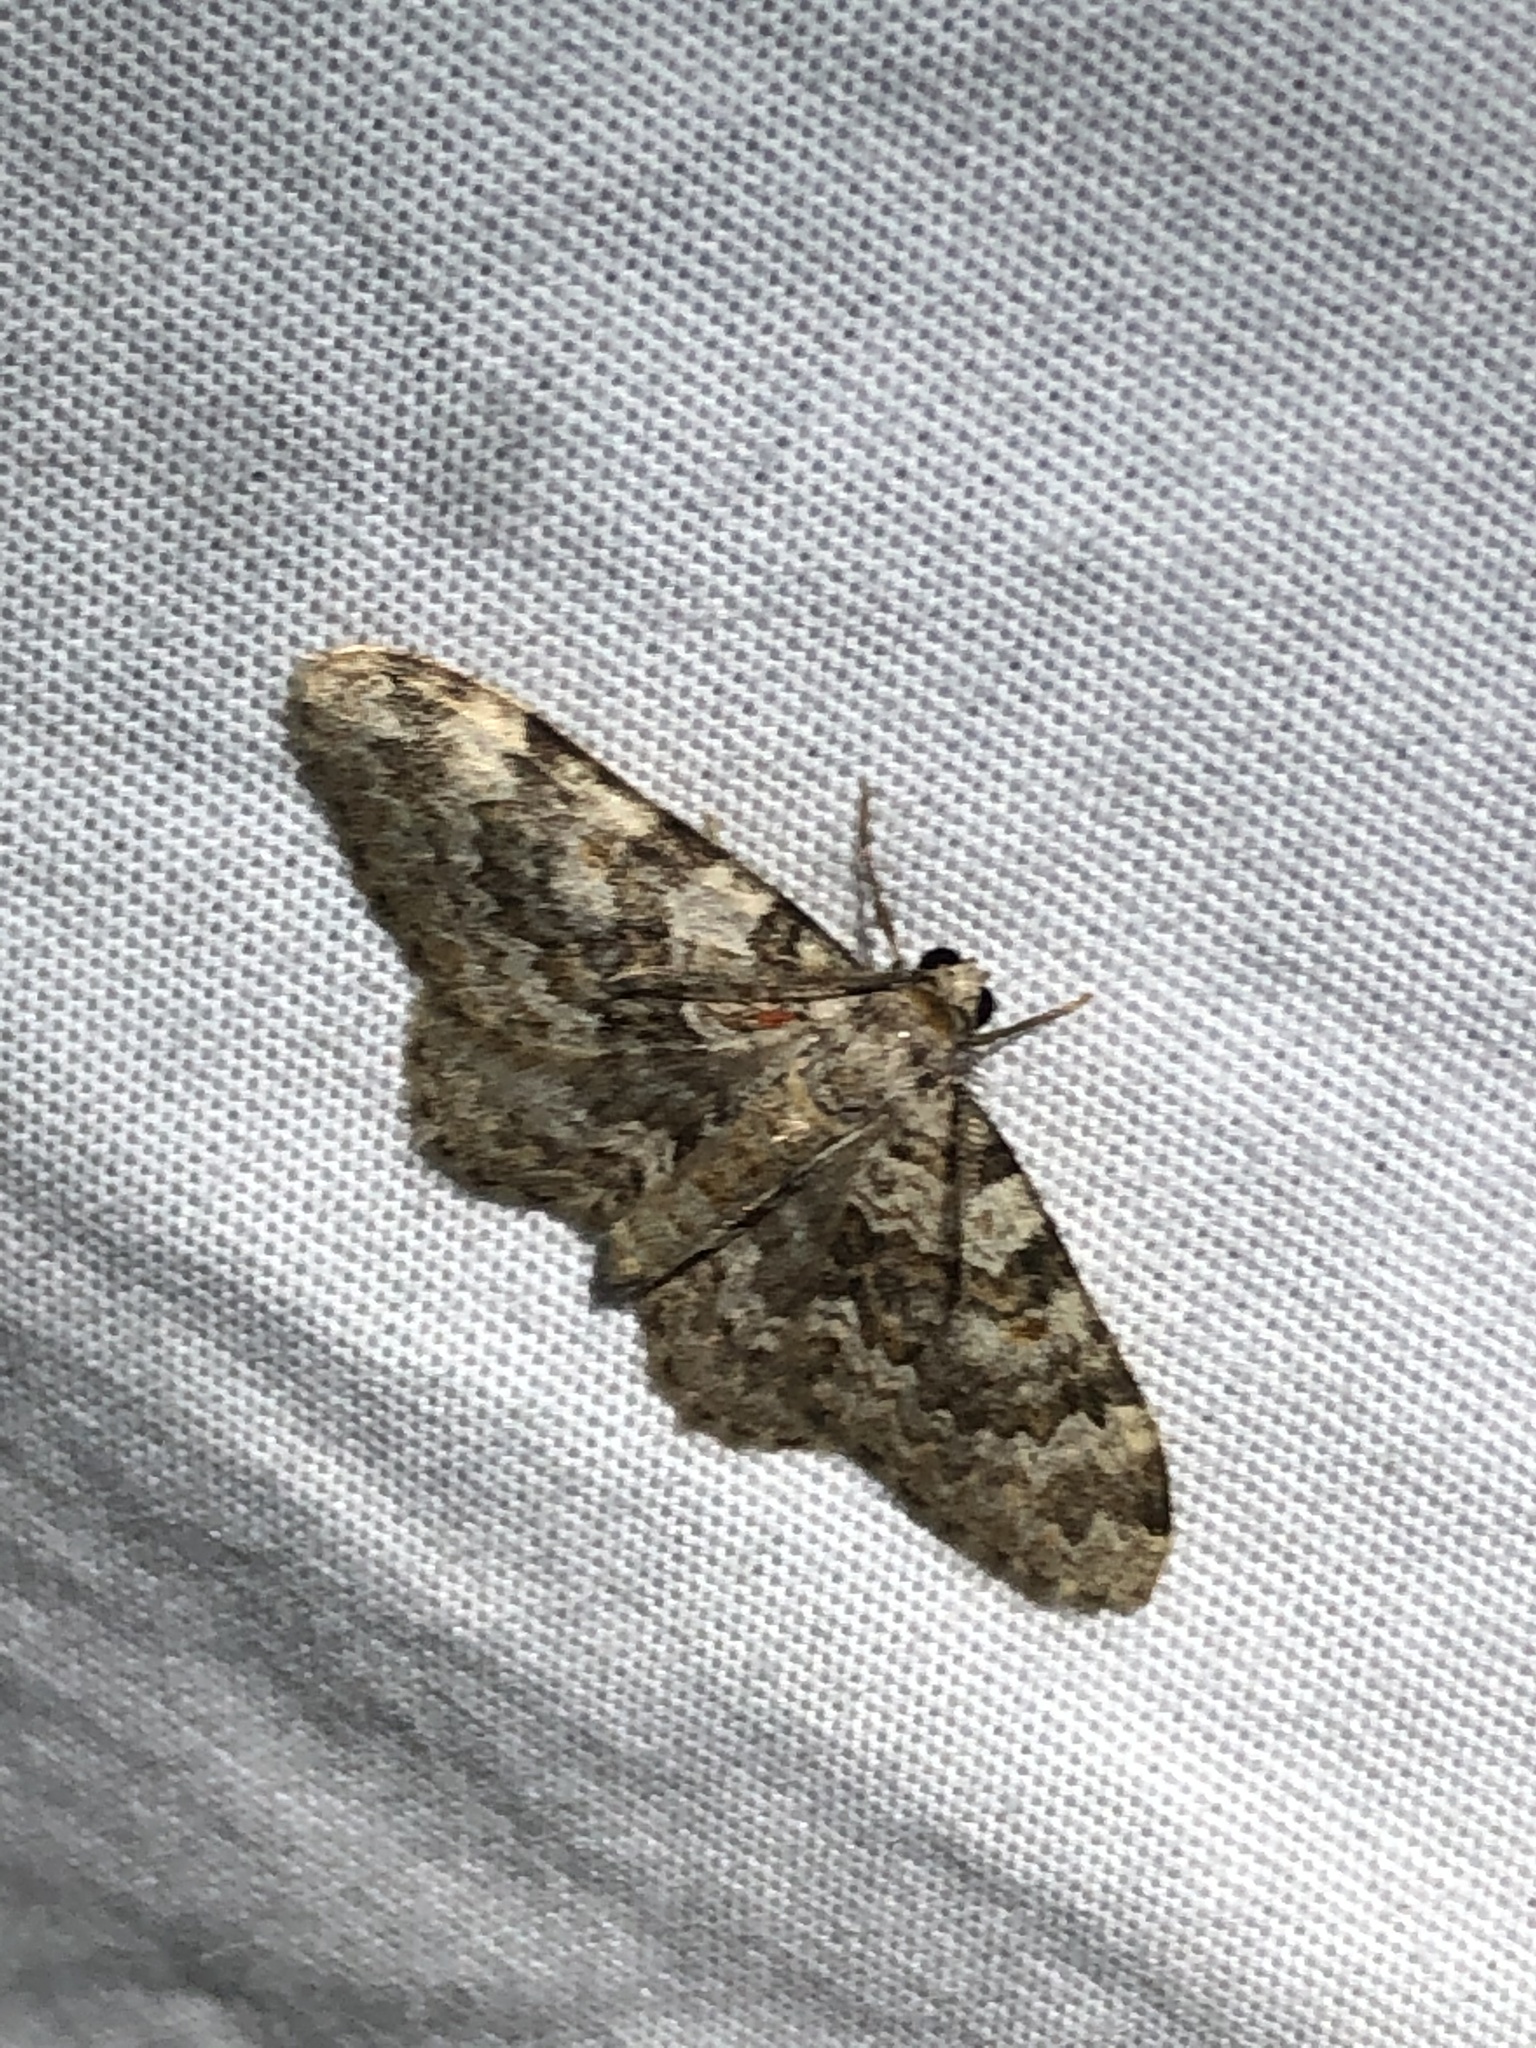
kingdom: Animalia
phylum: Arthropoda
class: Insecta
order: Lepidoptera
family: Geometridae
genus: Zenophleps
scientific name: Zenophleps obscurata
